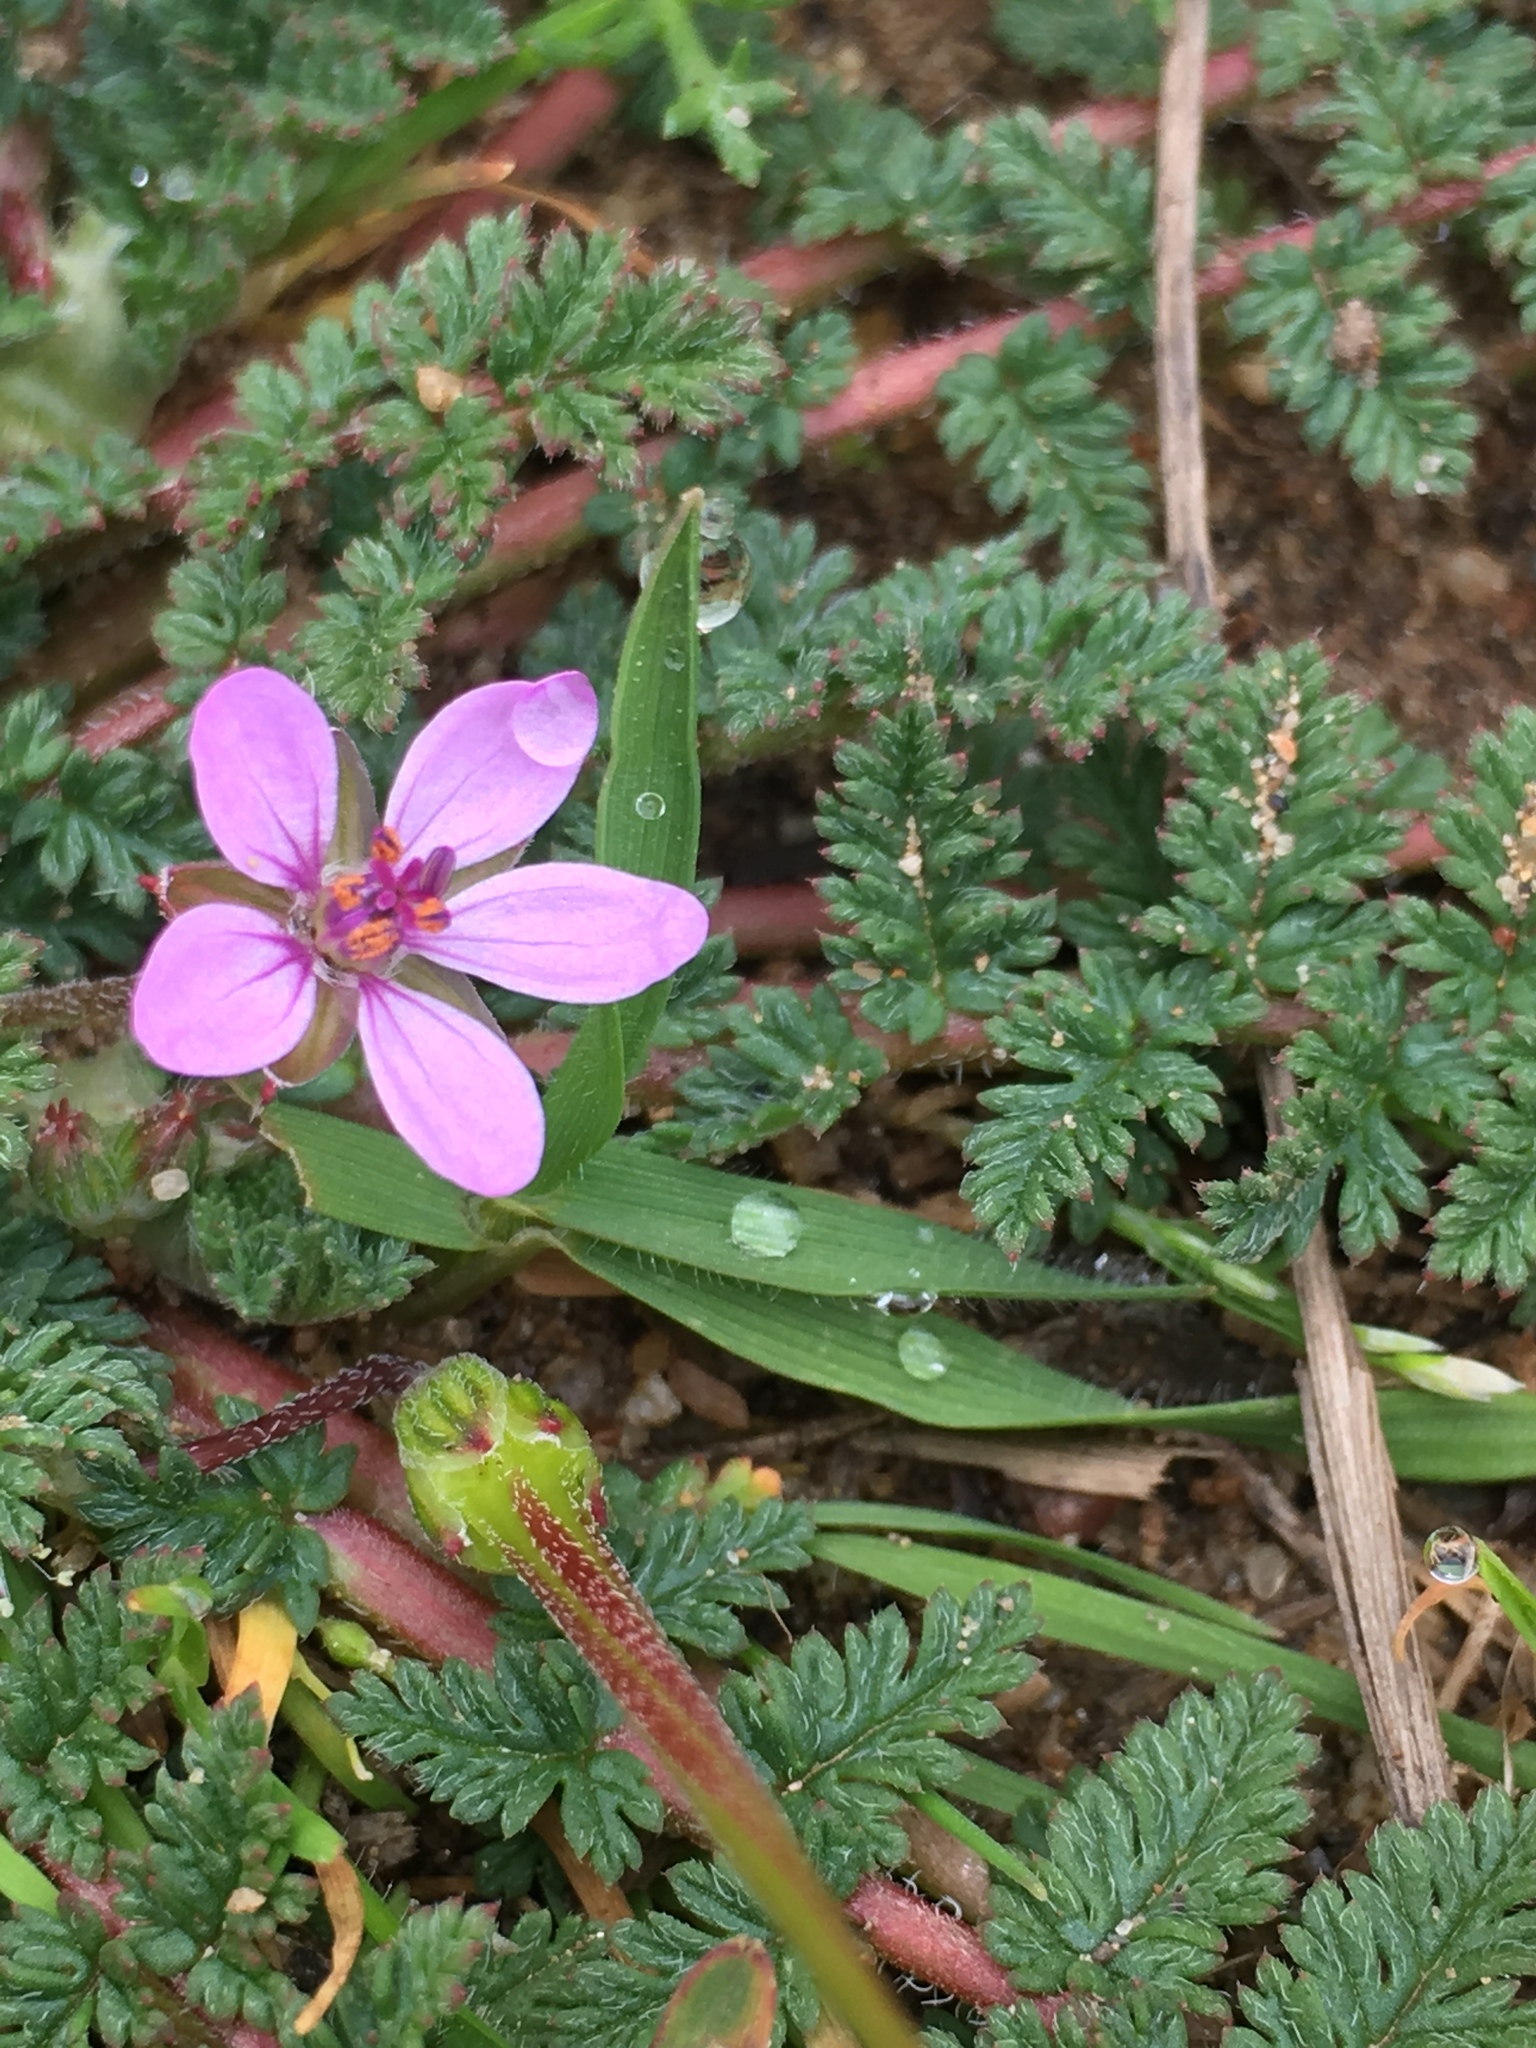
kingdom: Plantae
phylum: Tracheophyta
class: Magnoliopsida
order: Geraniales
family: Geraniaceae
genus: Erodium
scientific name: Erodium cicutarium
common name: Common stork's-bill
